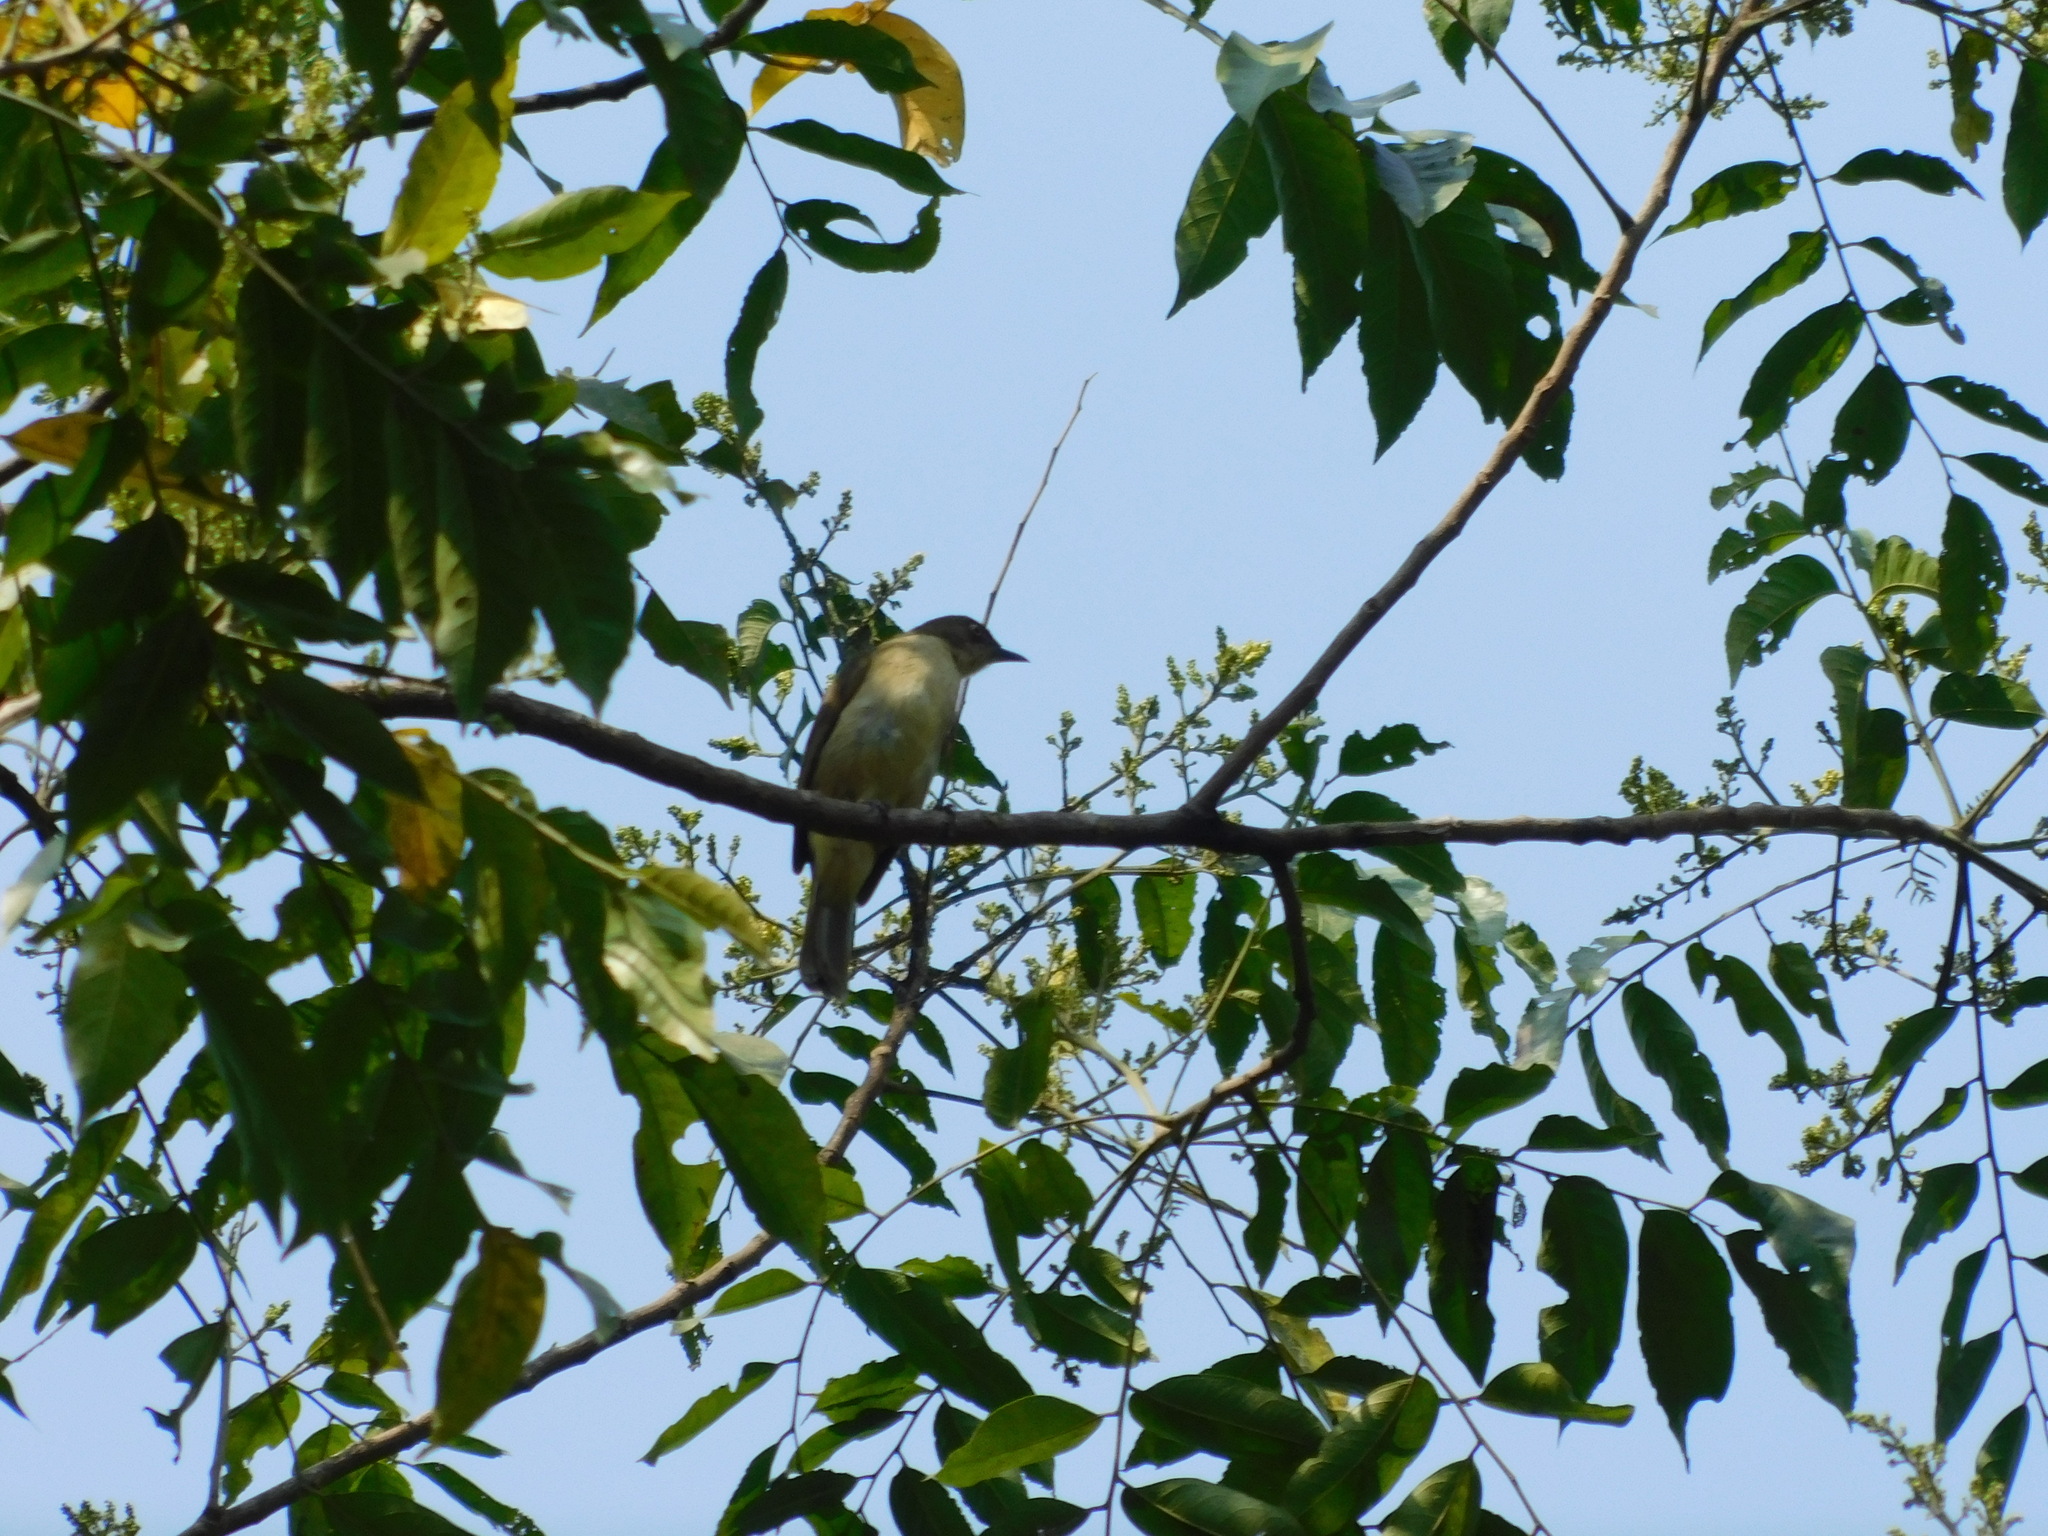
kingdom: Animalia
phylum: Chordata
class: Aves
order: Passeriformes
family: Pycnonotidae
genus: Pycnonotus
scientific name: Pycnonotus simplex
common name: Cream-vented bulbul
